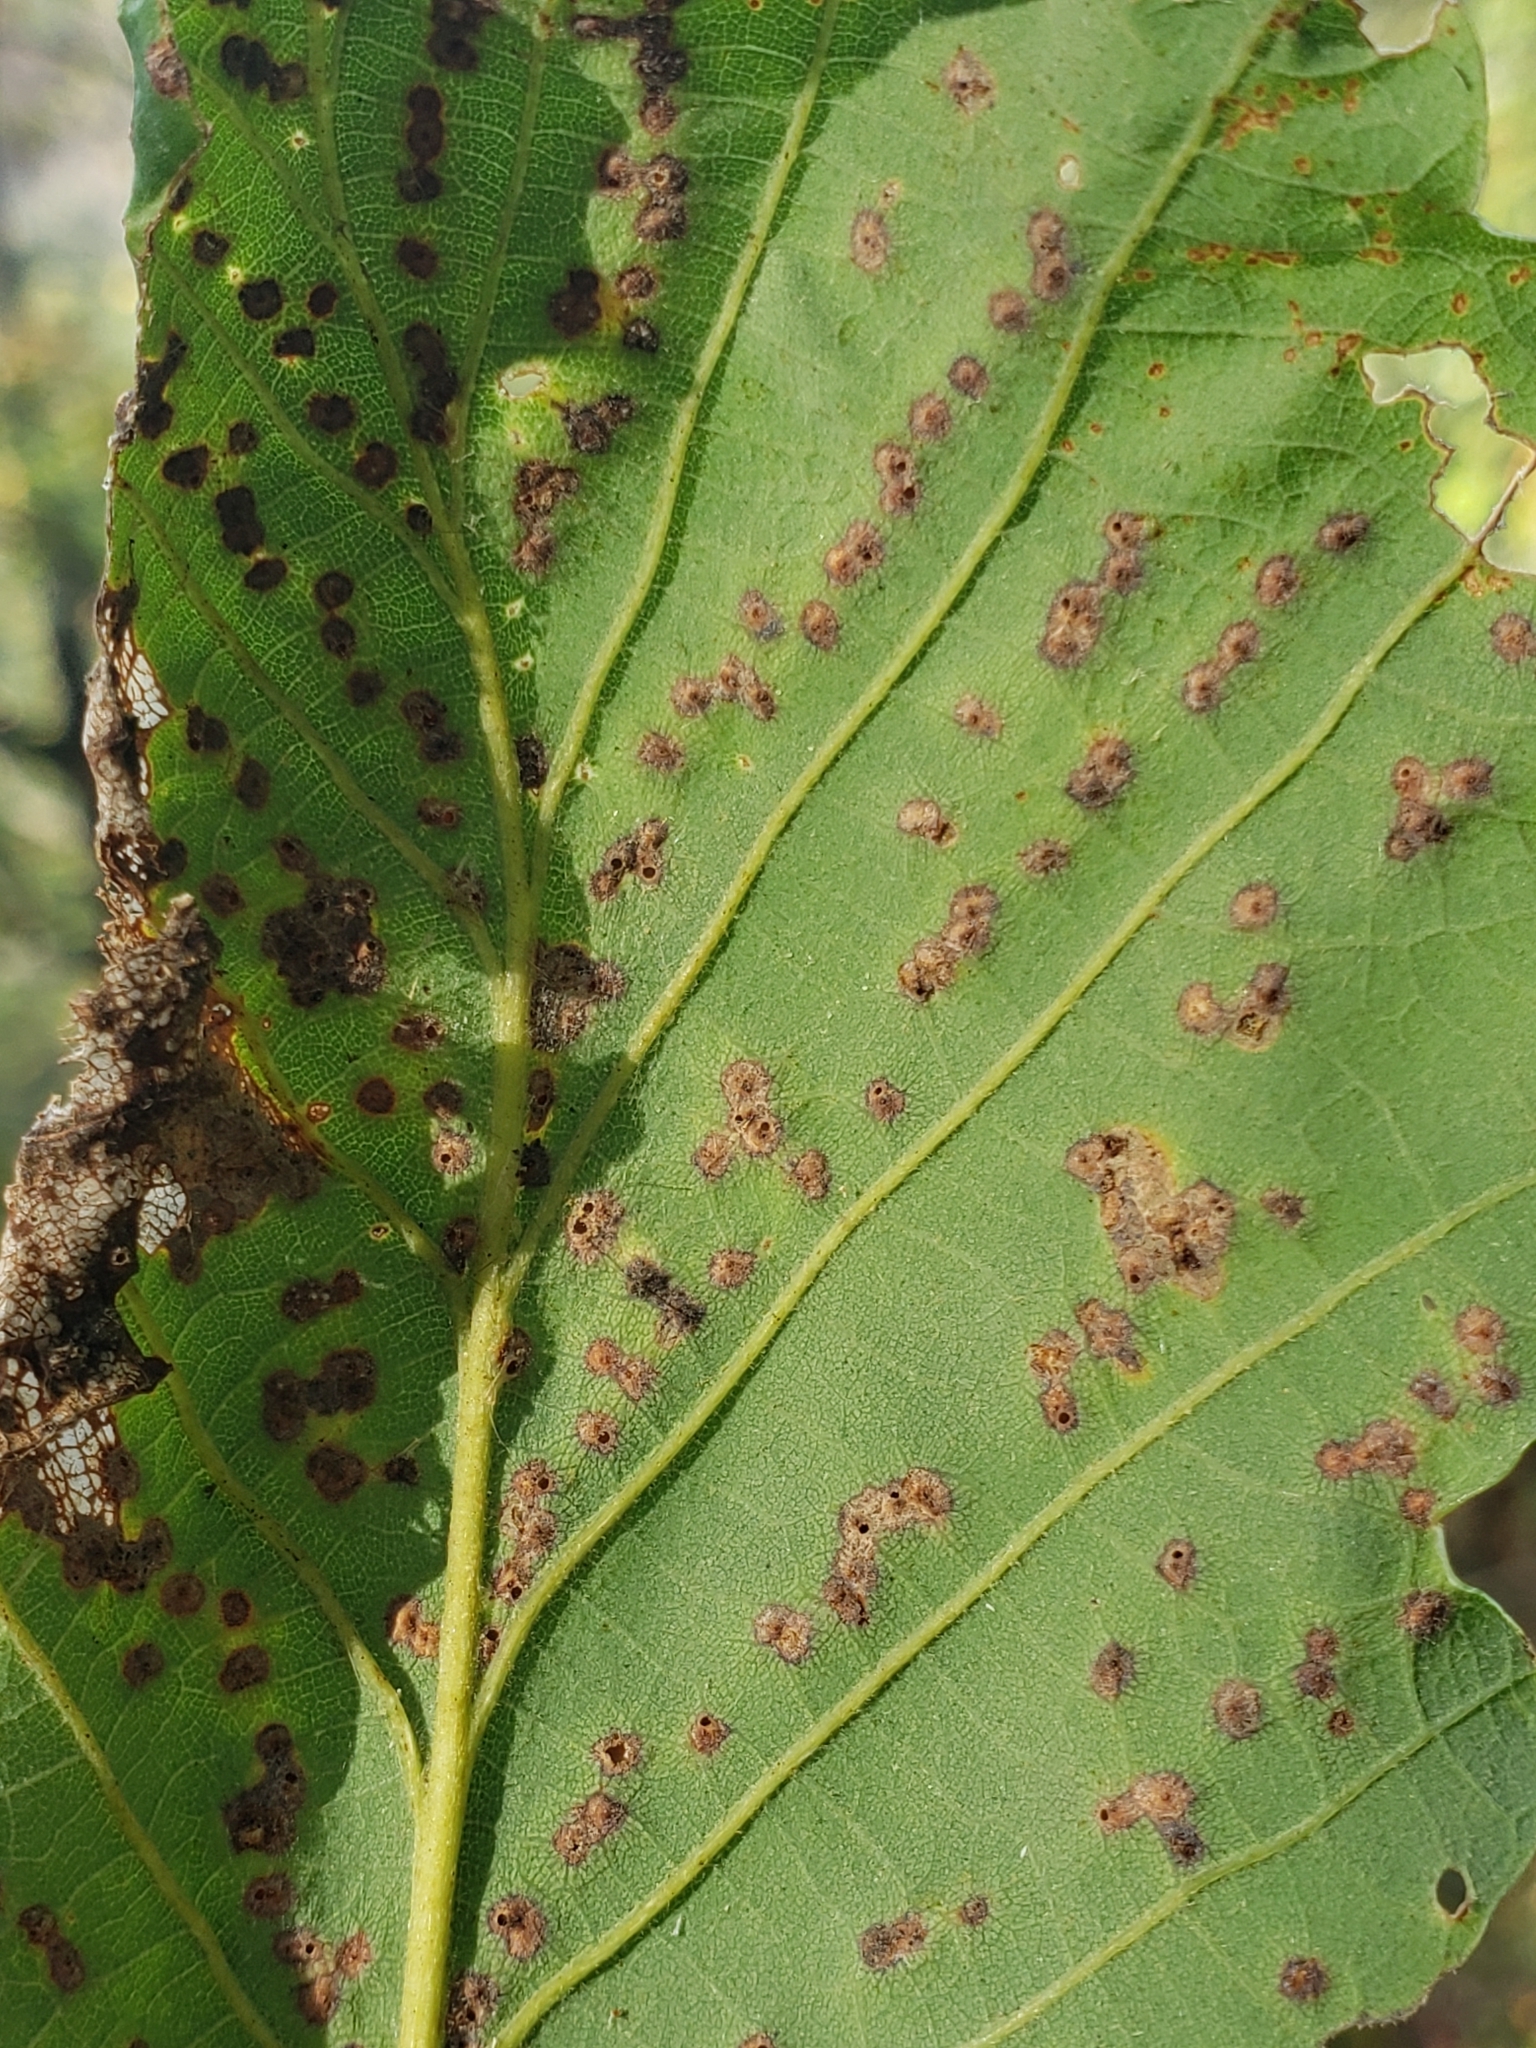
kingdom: Animalia
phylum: Arthropoda
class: Insecta
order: Hymenoptera
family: Cynipidae
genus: Neuroterus
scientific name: Neuroterus niger
